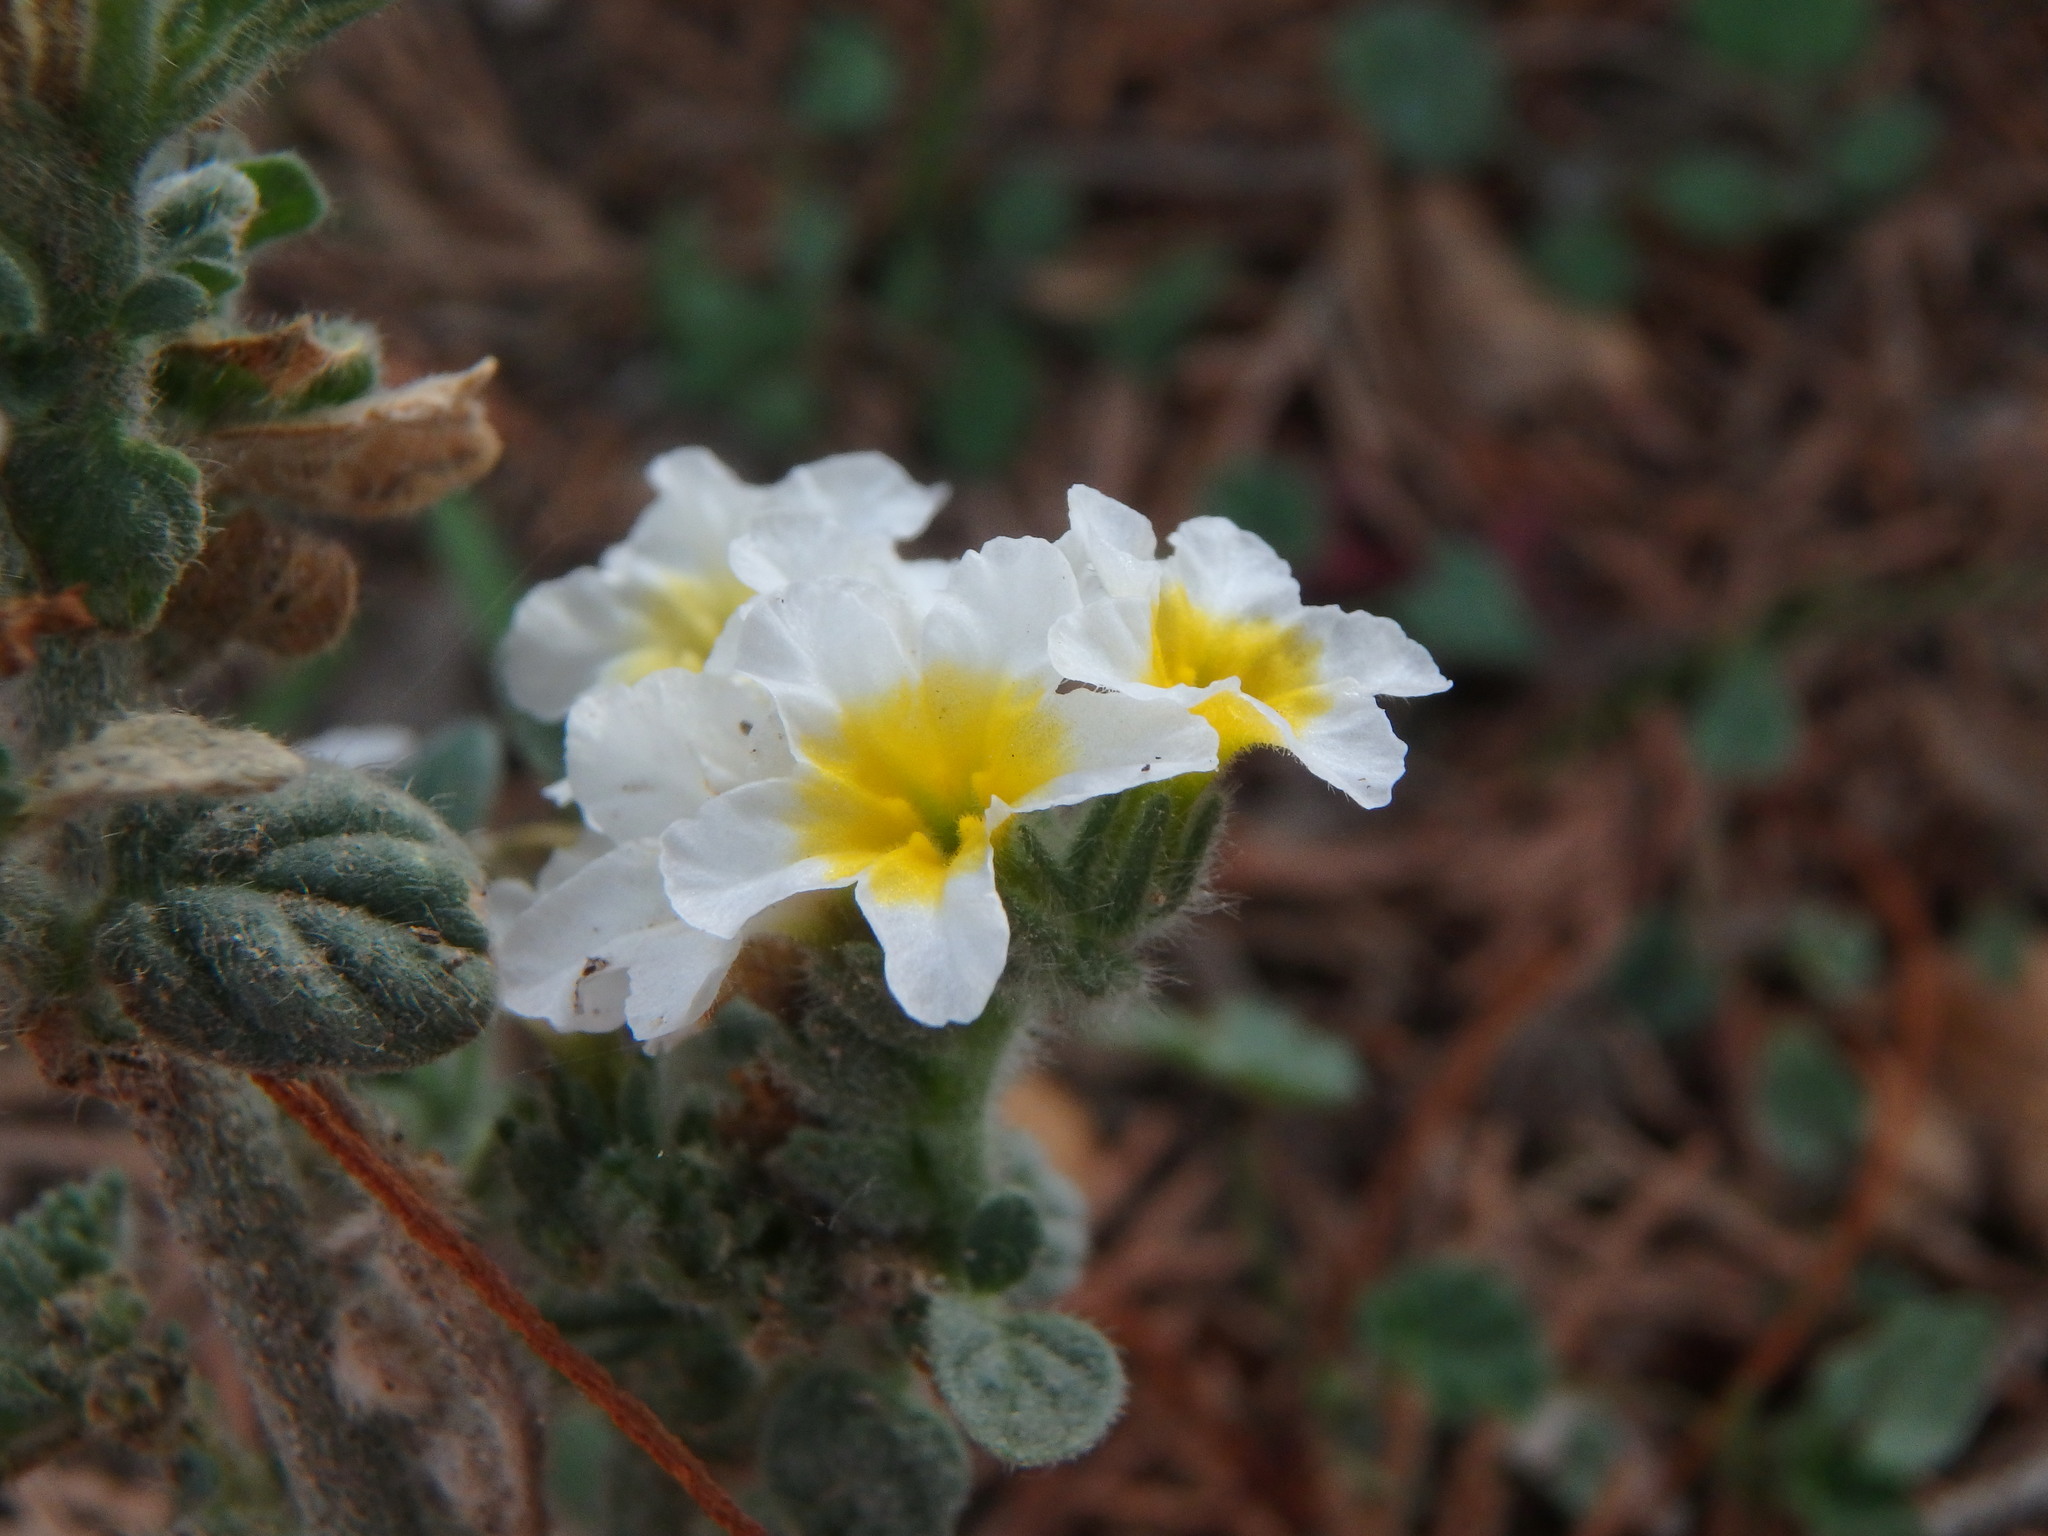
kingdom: Plantae
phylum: Tracheophyta
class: Magnoliopsida
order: Boraginales
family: Heliotropiaceae
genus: Heliotropium
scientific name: Heliotropium hirsutissimum
